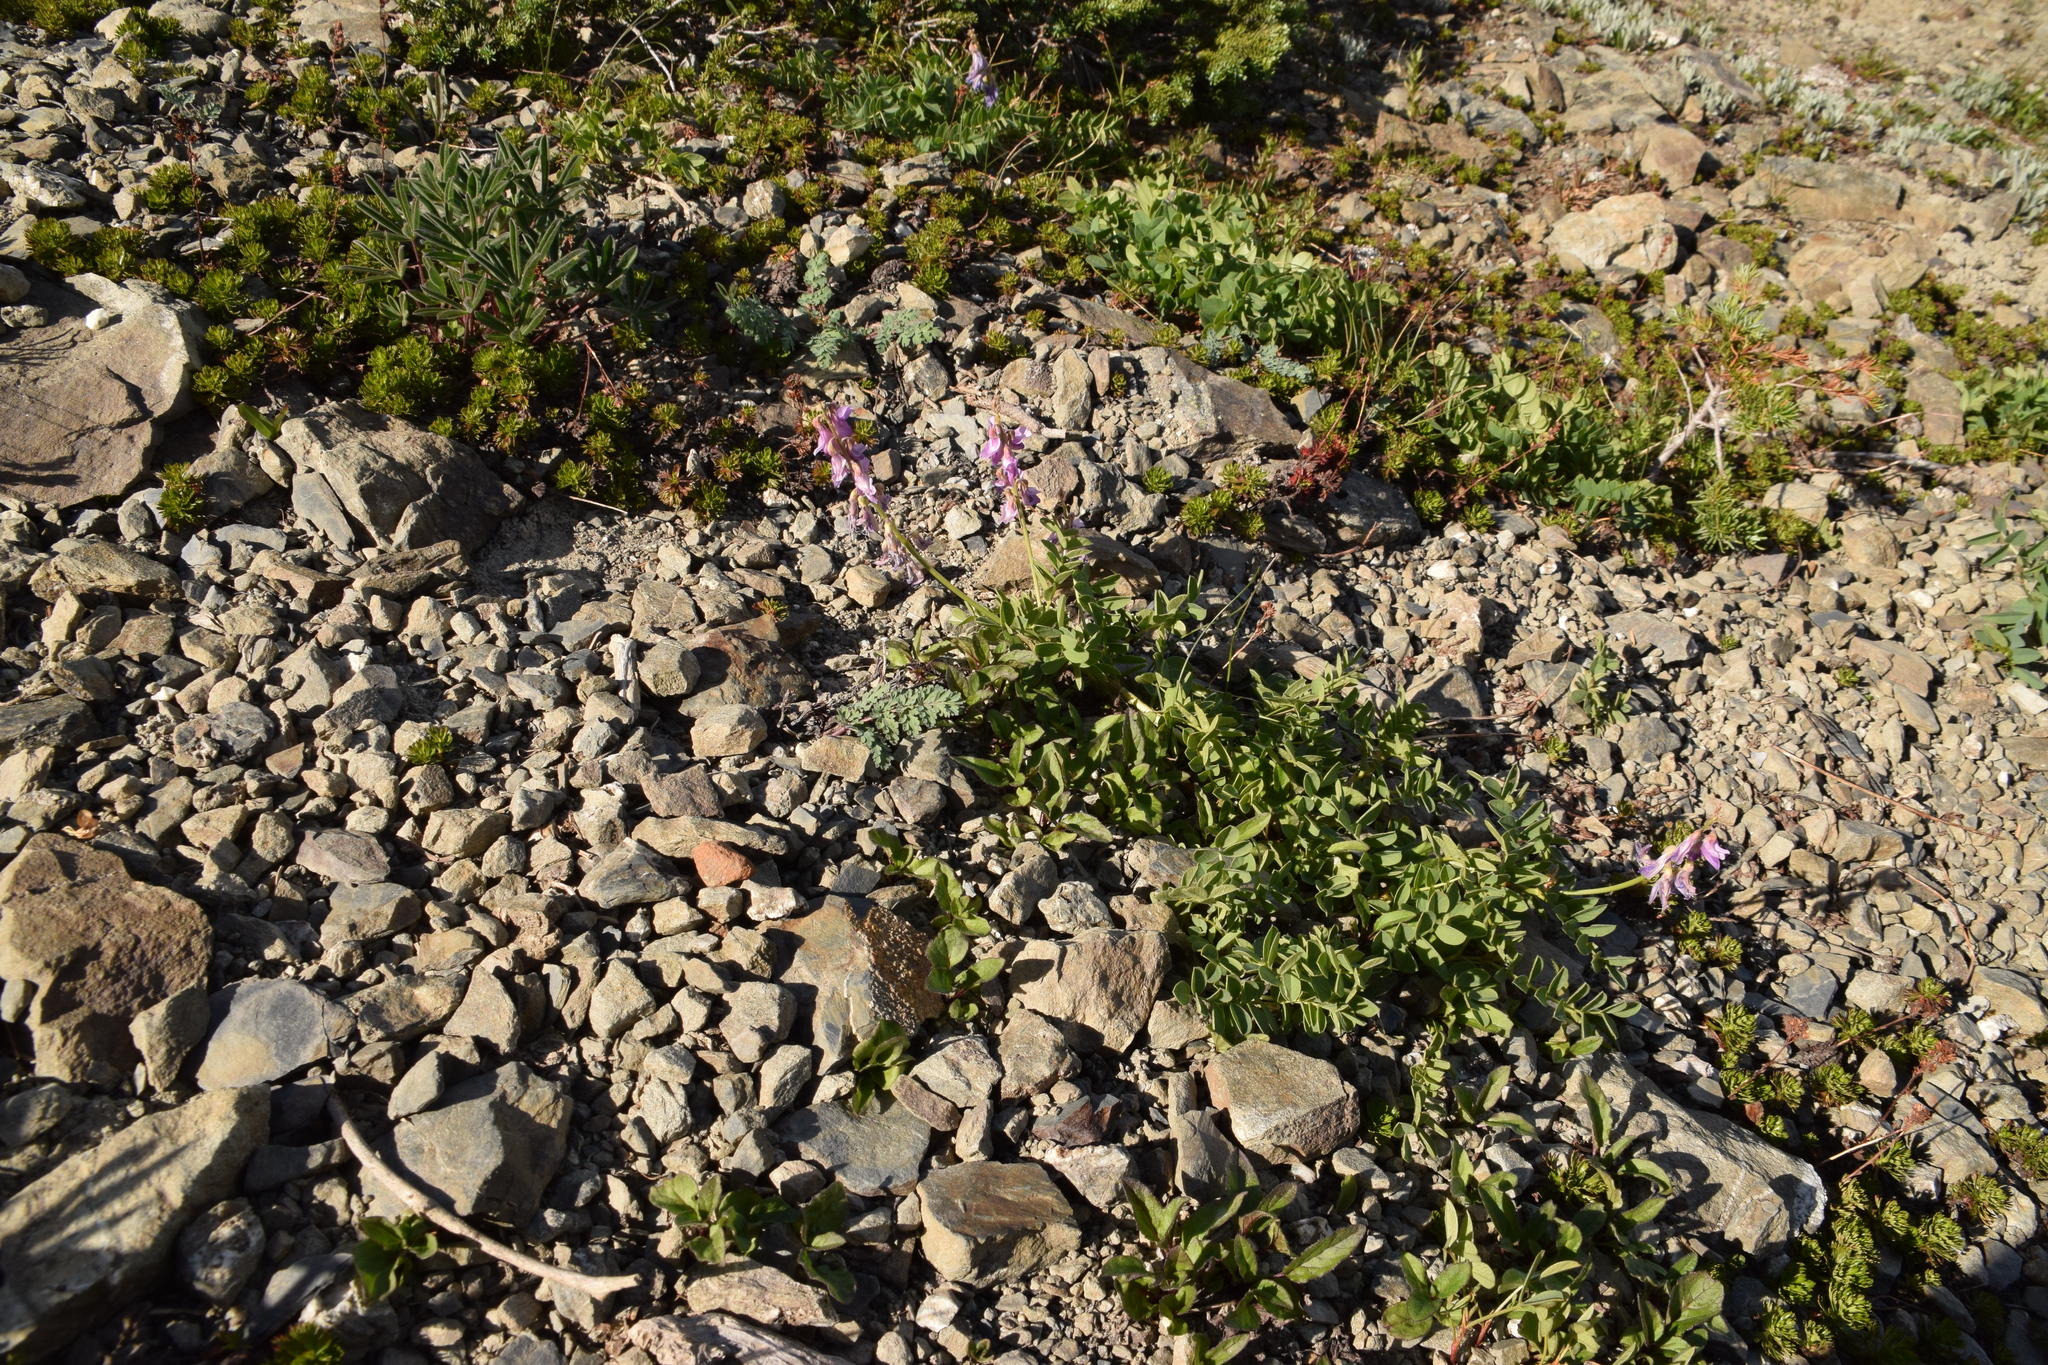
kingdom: Plantae
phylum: Tracheophyta
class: Magnoliopsida
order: Fabales
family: Fabaceae
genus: Hedysarum
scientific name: Hedysarum occidentale
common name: Western hedysarum
